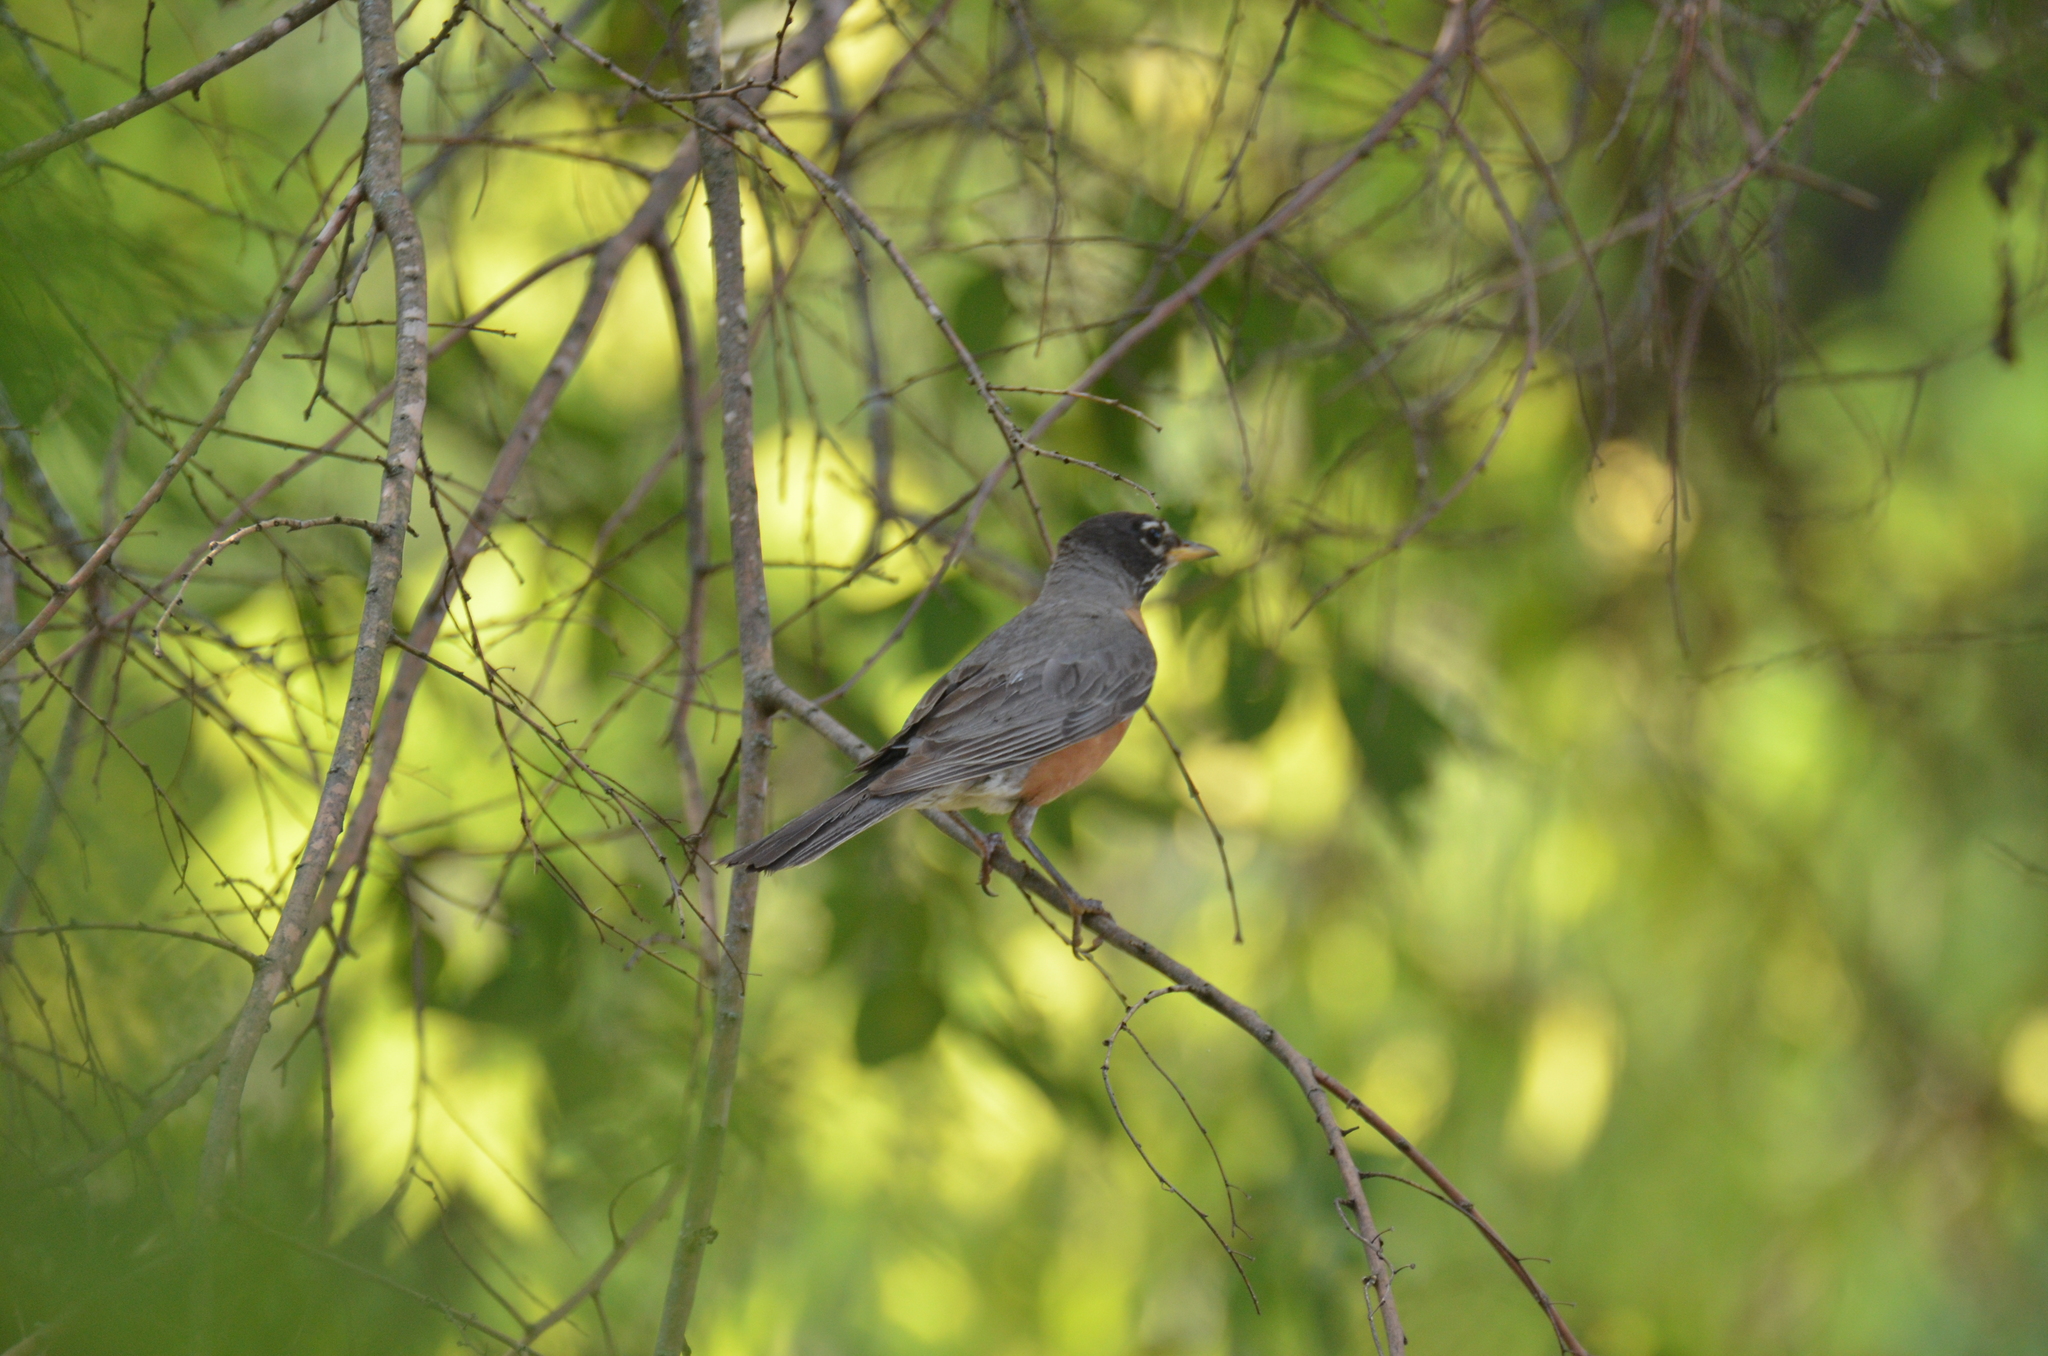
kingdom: Animalia
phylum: Chordata
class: Aves
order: Passeriformes
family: Turdidae
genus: Turdus
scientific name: Turdus migratorius
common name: American robin
